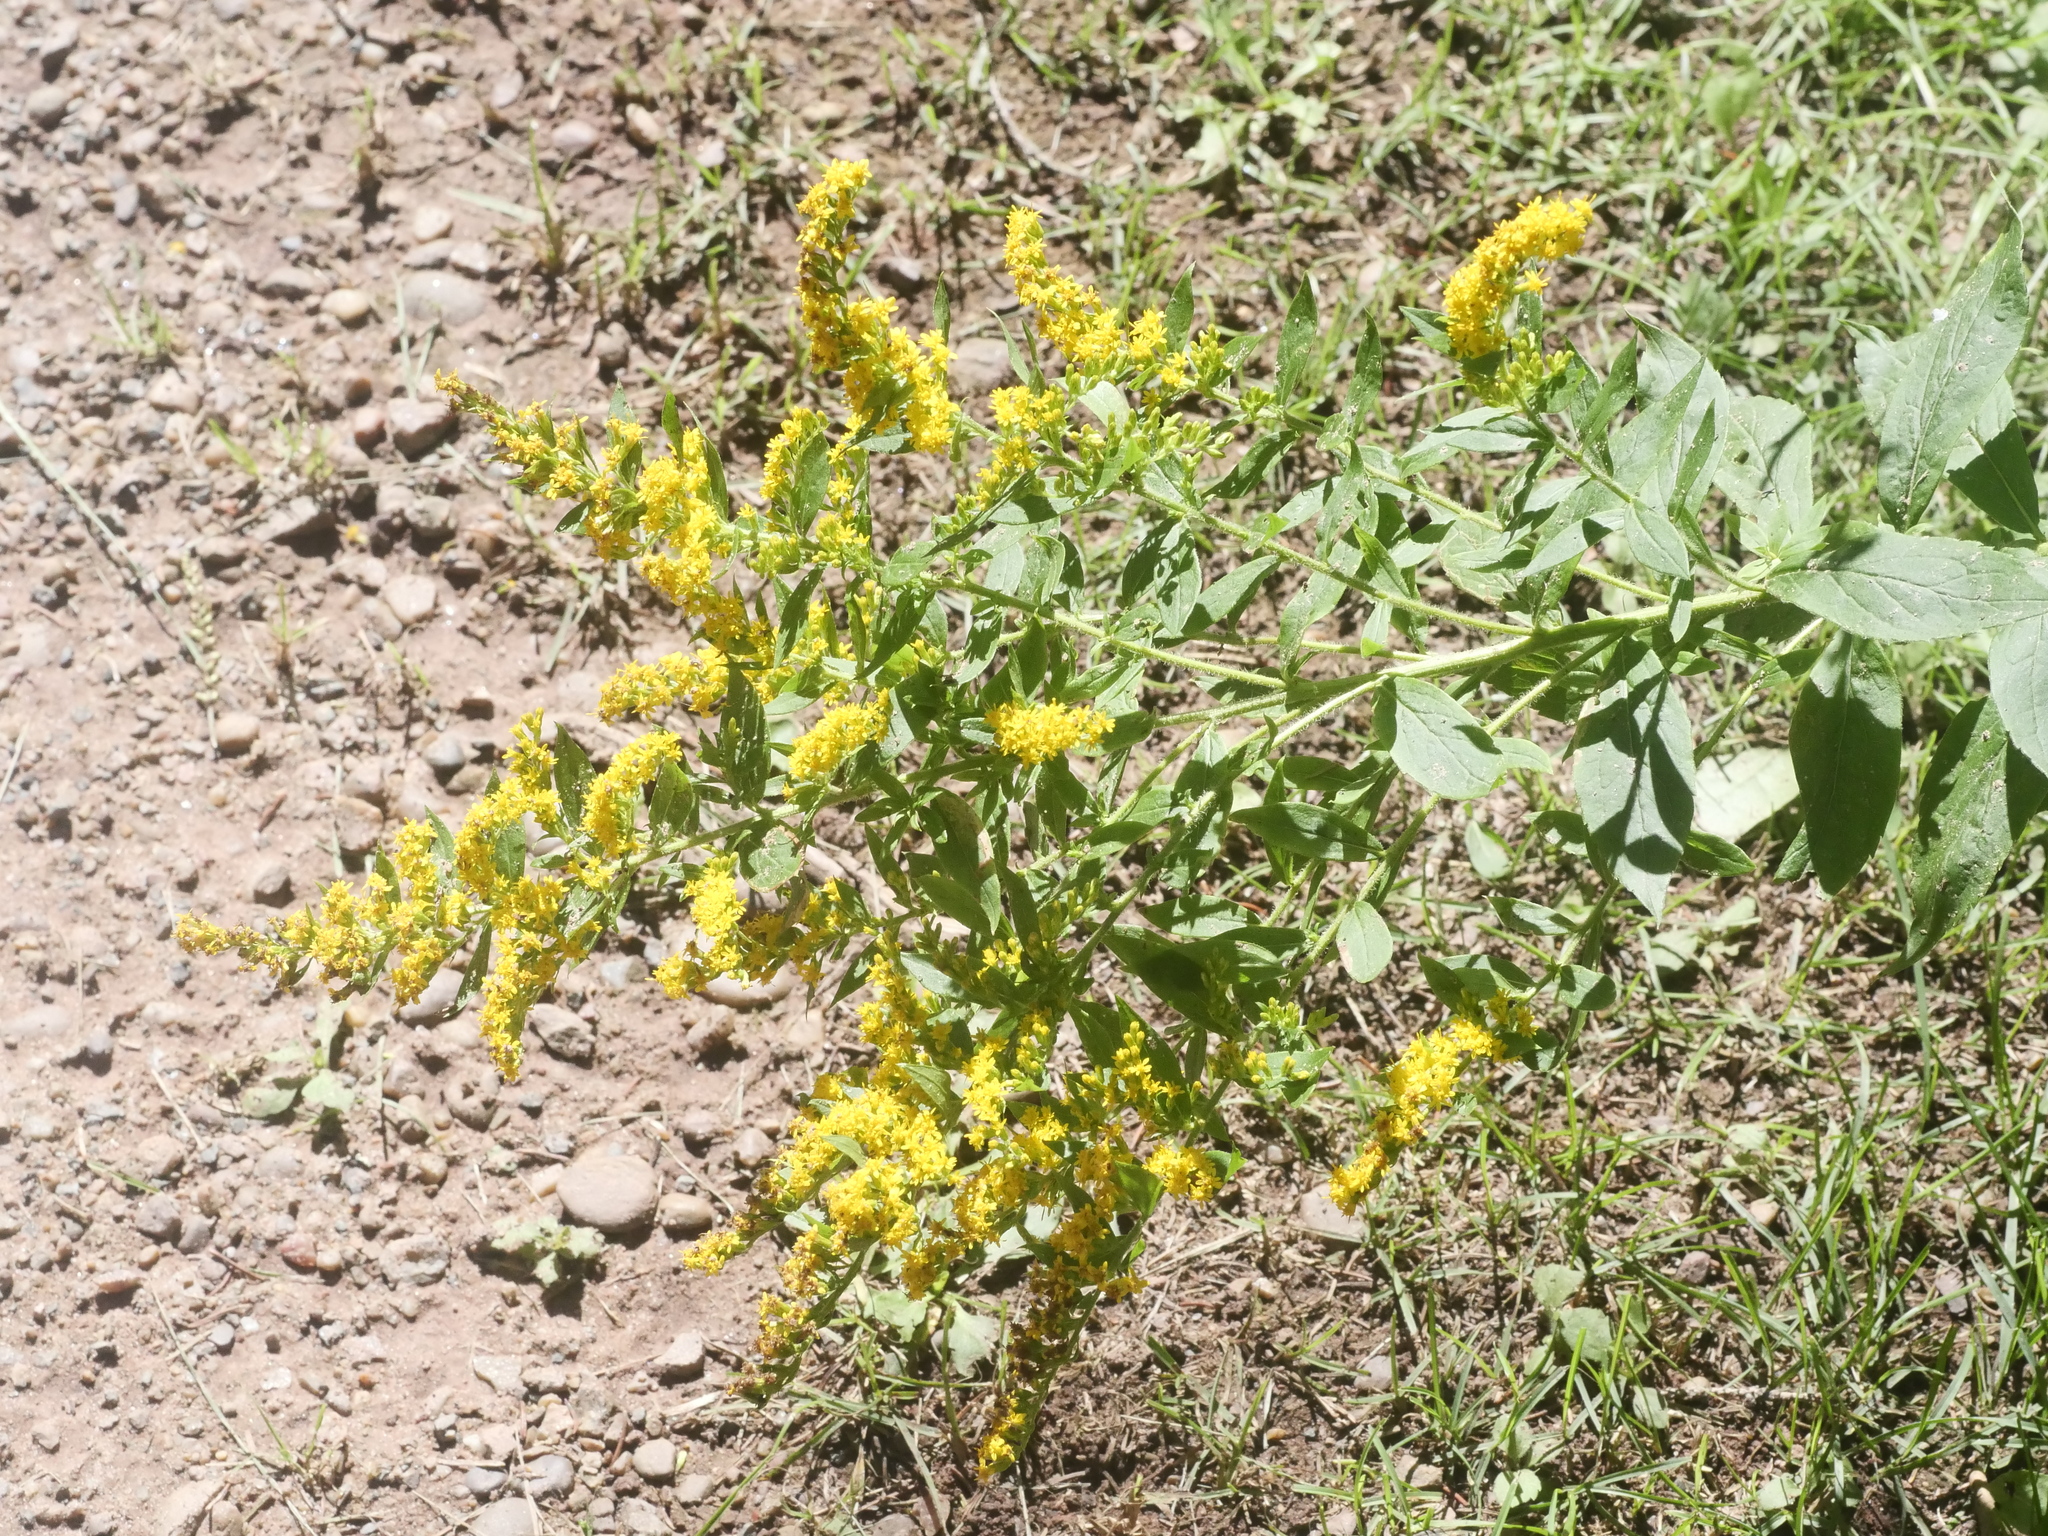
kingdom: Plantae
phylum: Tracheophyta
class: Magnoliopsida
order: Asterales
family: Asteraceae
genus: Solidago
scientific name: Solidago rugosa
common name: Rough-stemmed goldenrod
